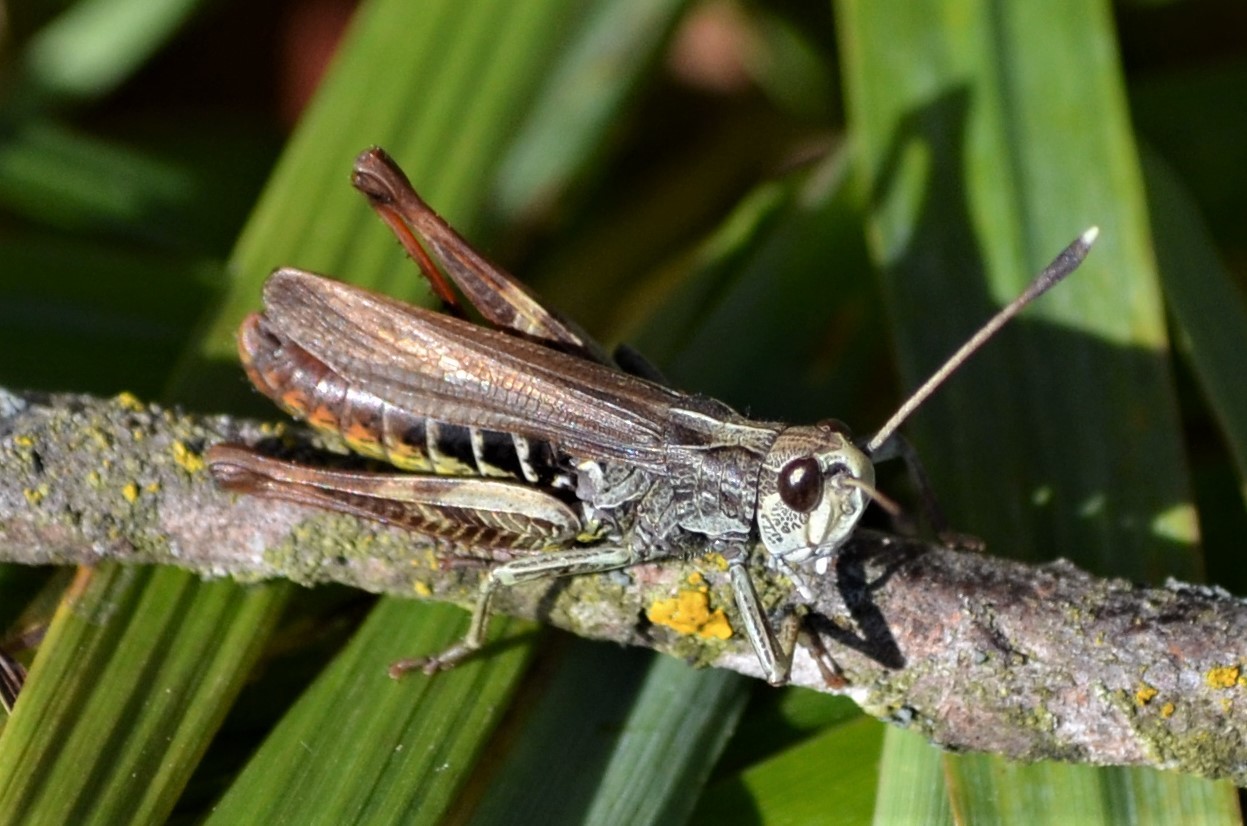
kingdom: Animalia
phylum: Arthropoda
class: Insecta
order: Orthoptera
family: Acrididae
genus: Gomphocerippus
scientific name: Gomphocerippus rufus
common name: Rufous grasshopper
